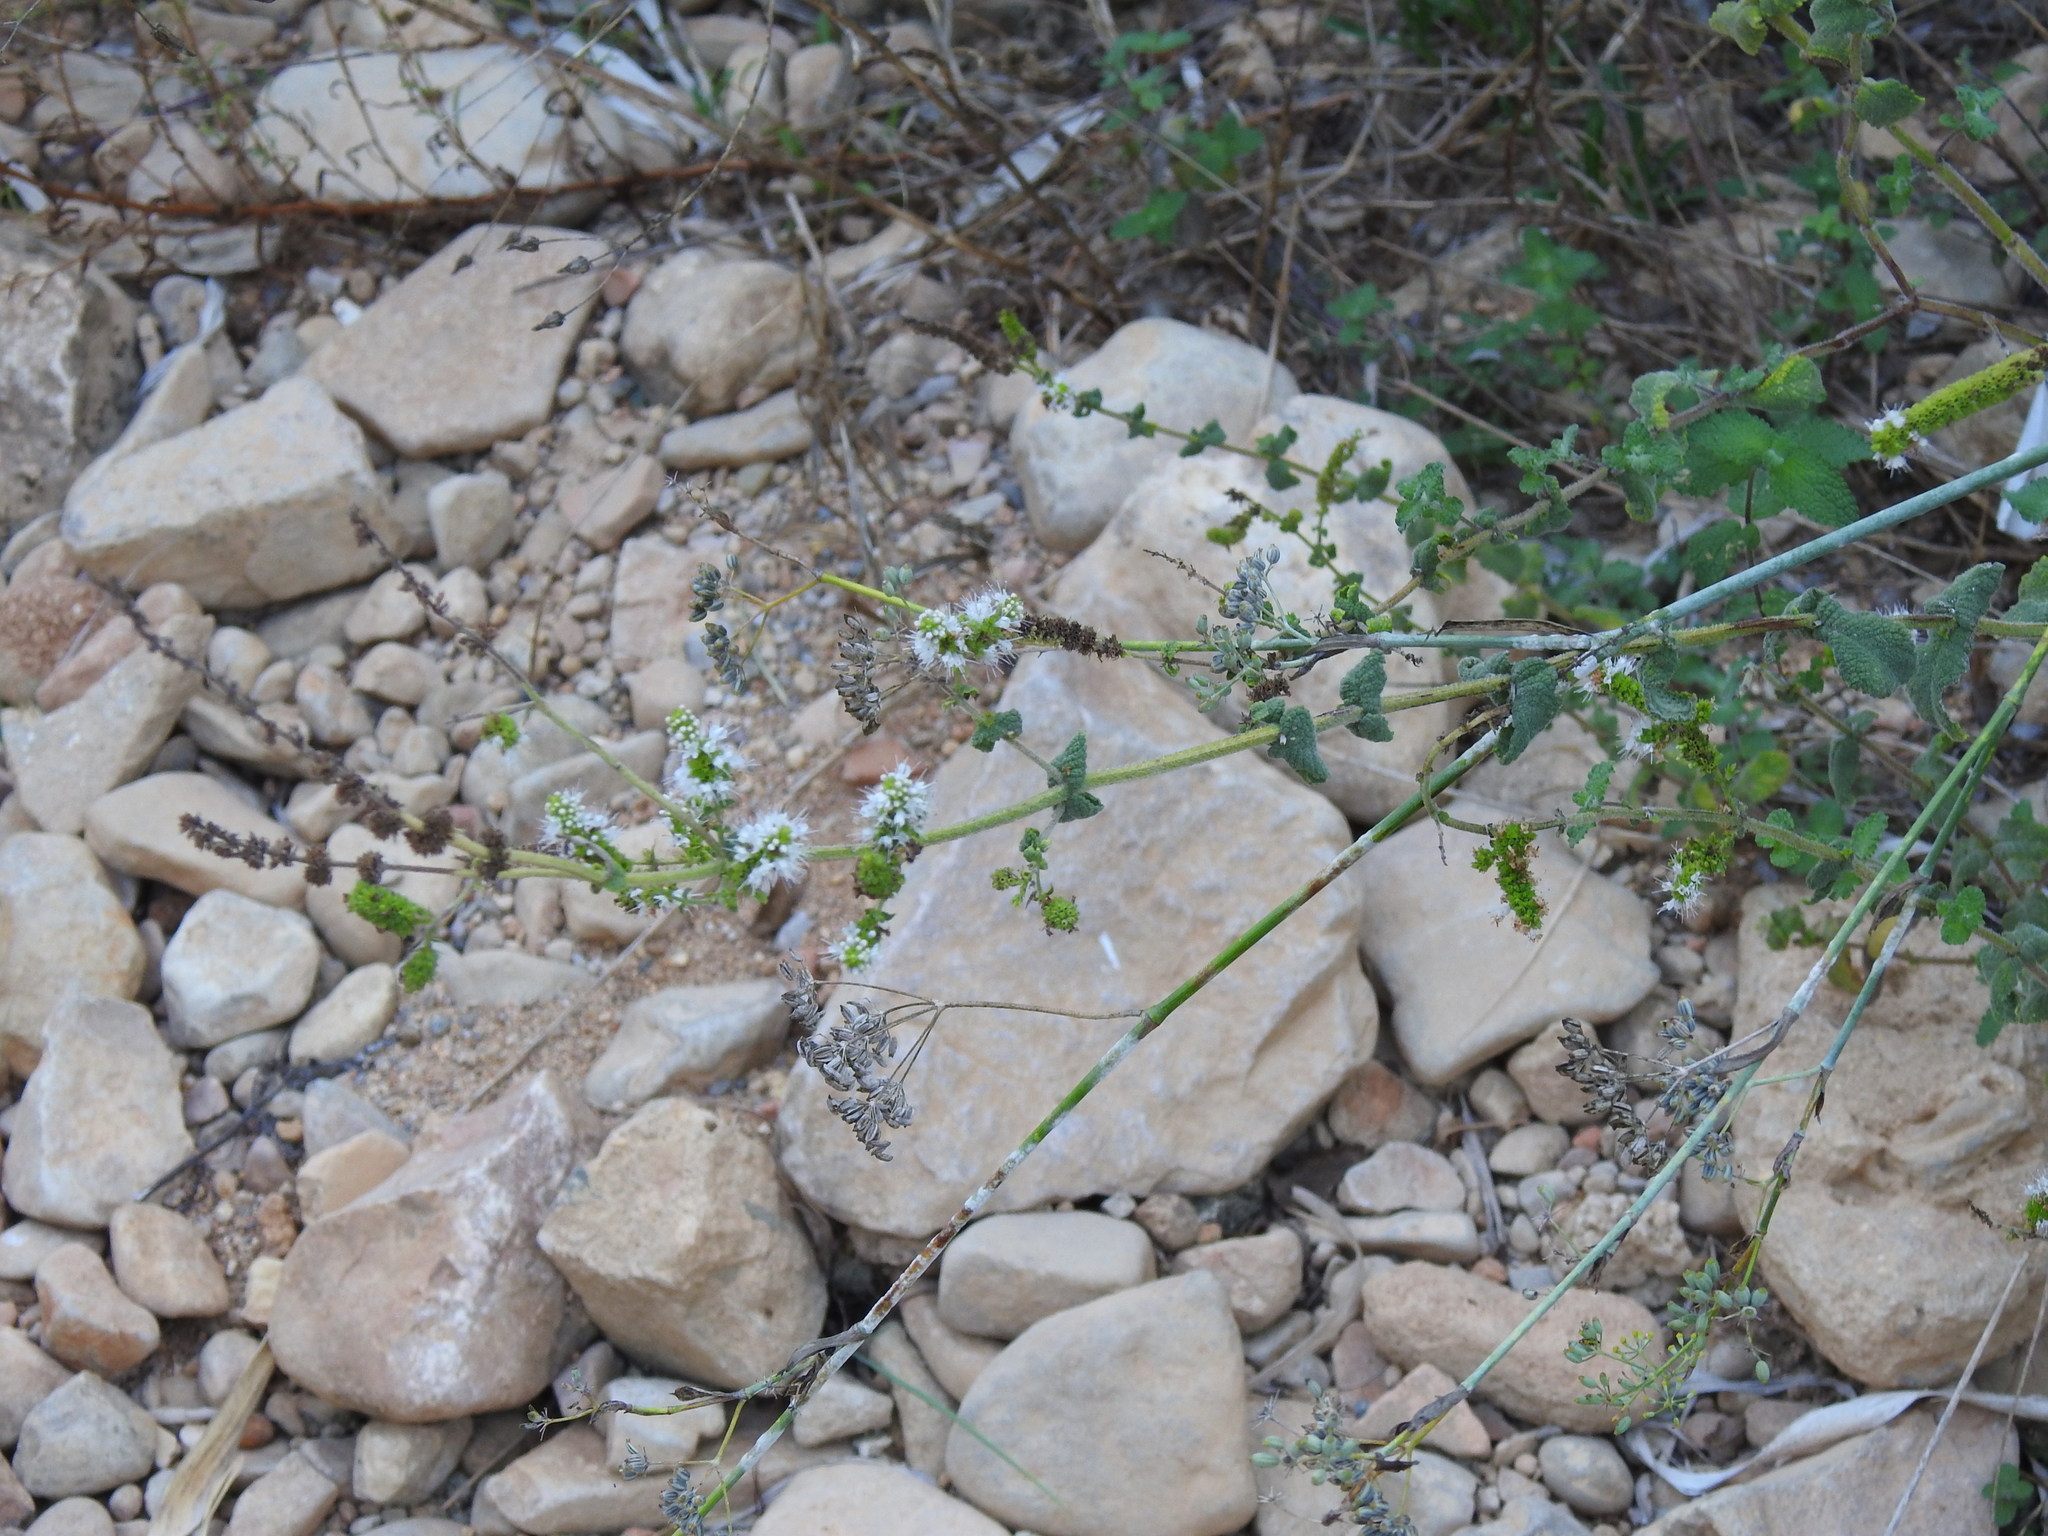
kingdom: Plantae
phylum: Tracheophyta
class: Magnoliopsida
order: Lamiales
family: Lamiaceae
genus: Mentha
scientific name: Mentha suaveolens
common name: Apple mint
